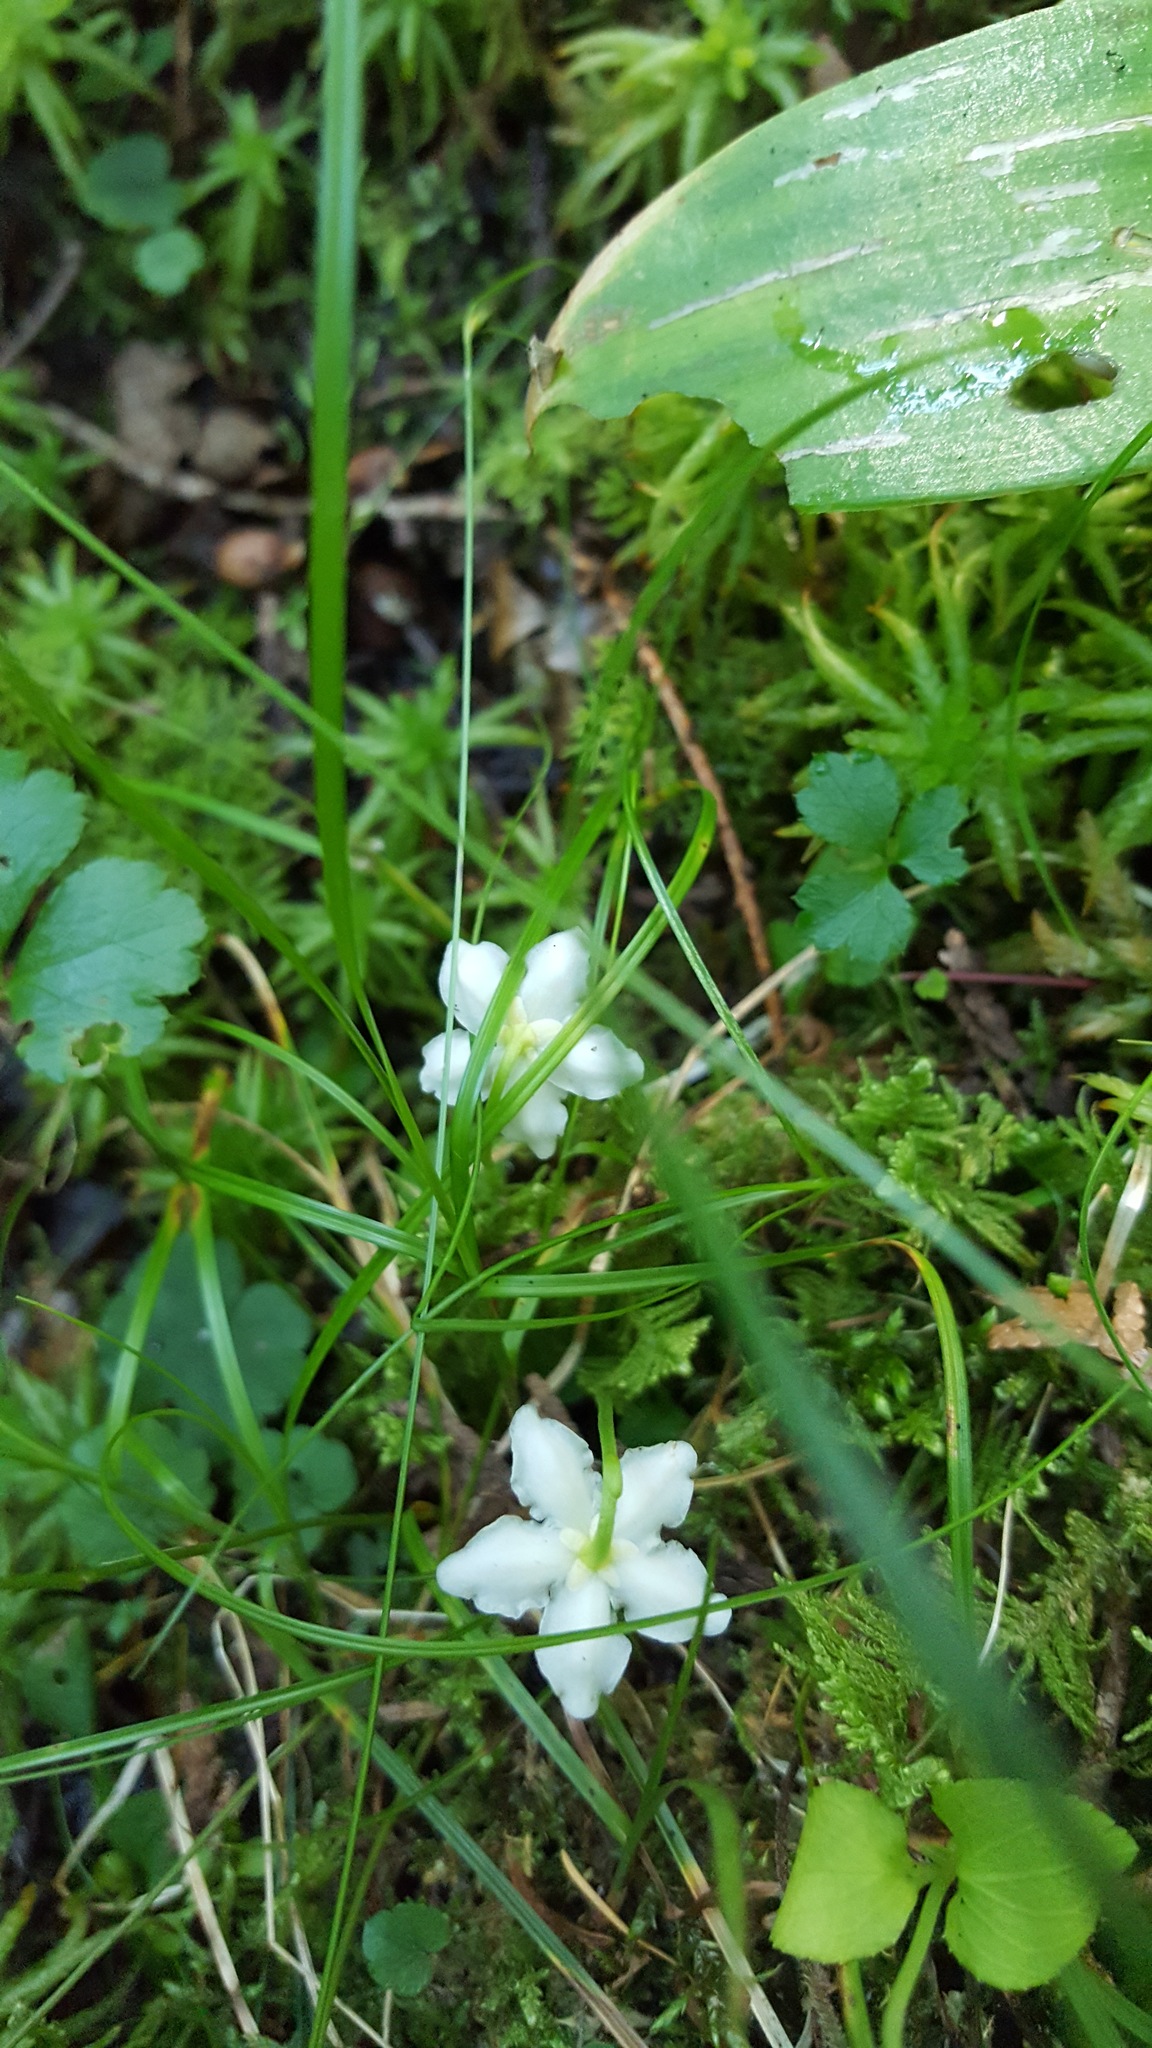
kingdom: Plantae
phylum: Tracheophyta
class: Magnoliopsida
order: Ericales
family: Ericaceae
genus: Moneses
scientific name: Moneses uniflora
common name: One-flowered wintergreen
